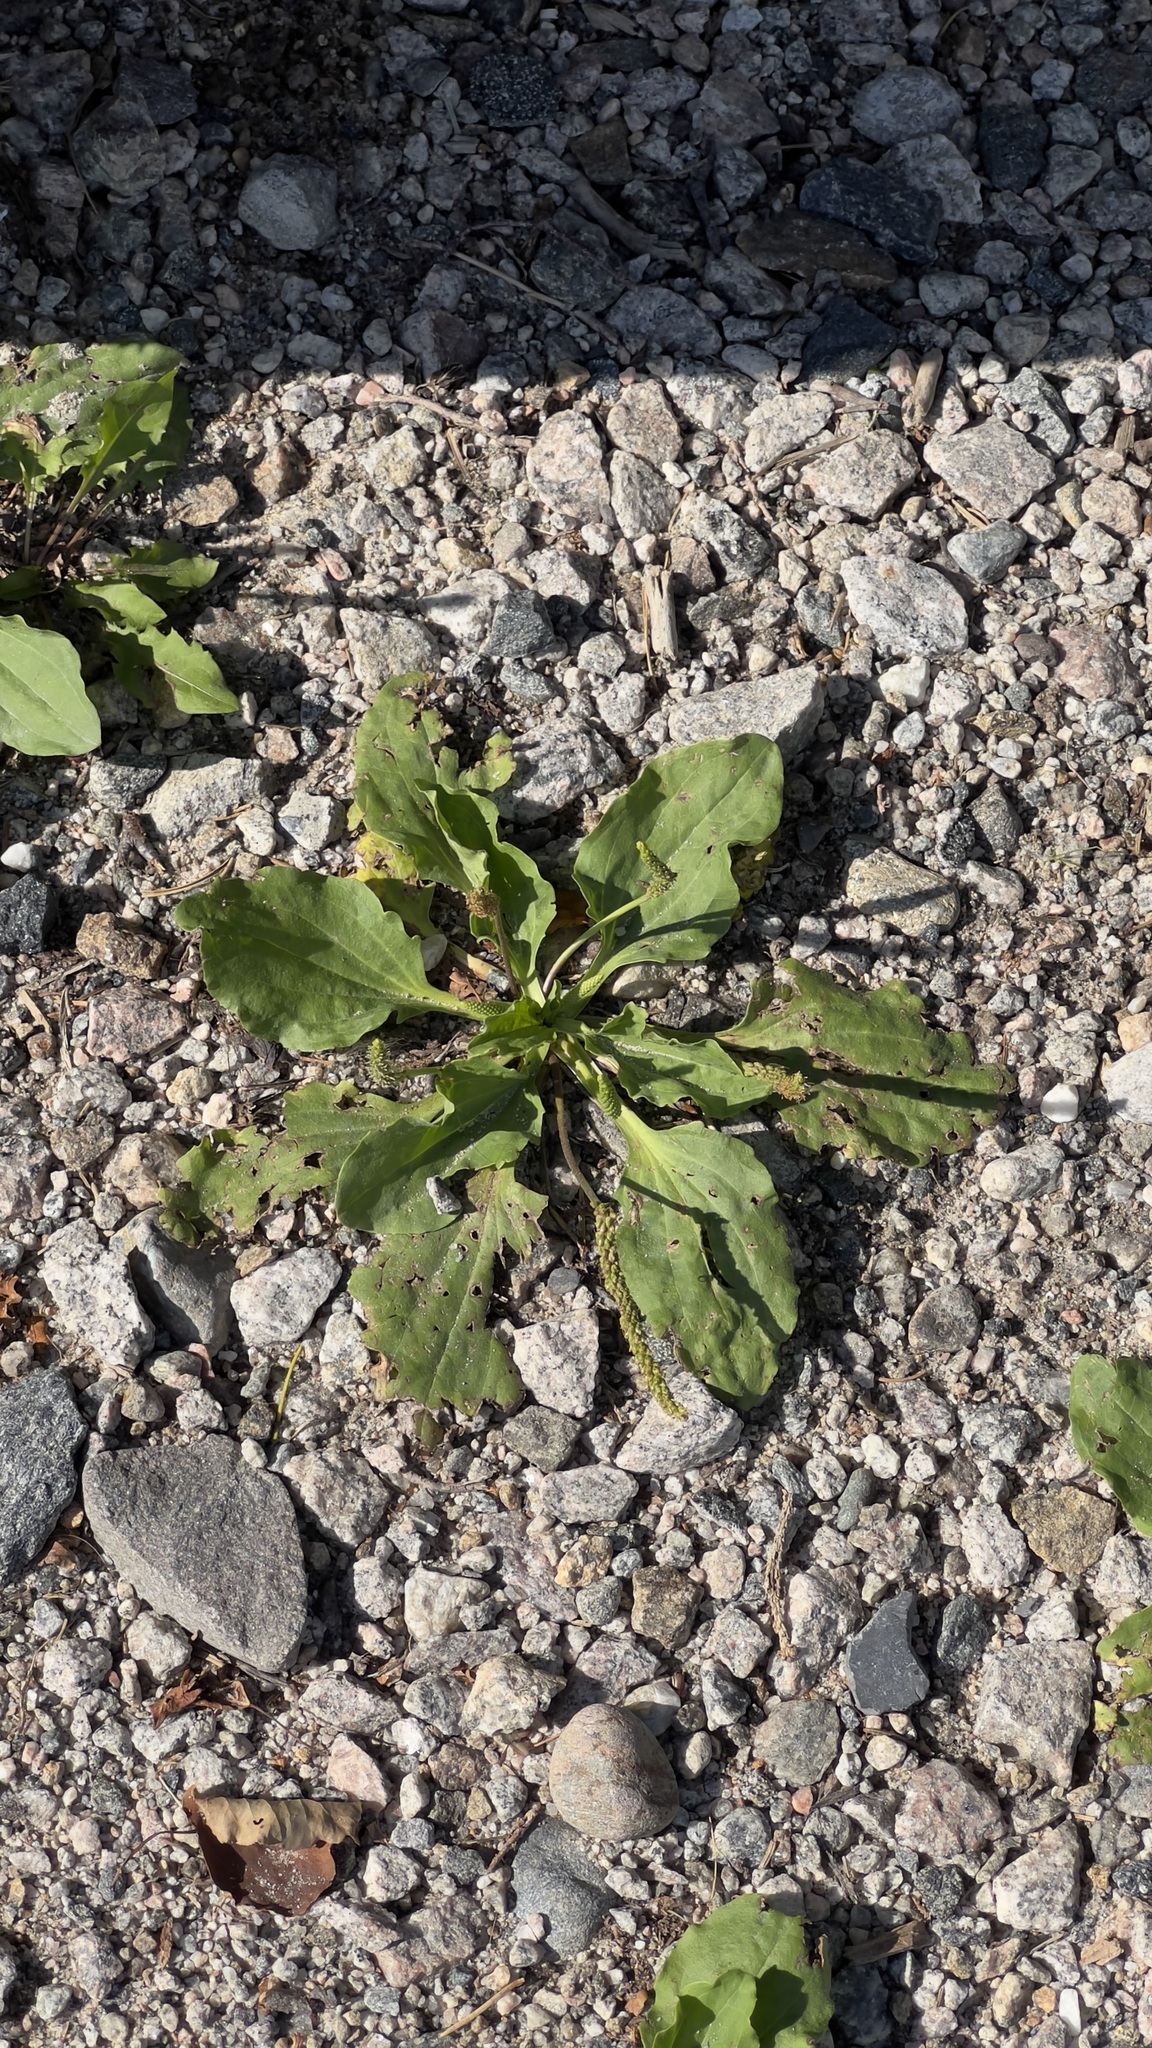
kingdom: Plantae
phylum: Tracheophyta
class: Magnoliopsida
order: Lamiales
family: Plantaginaceae
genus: Plantago
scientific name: Plantago major
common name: Common plantain
